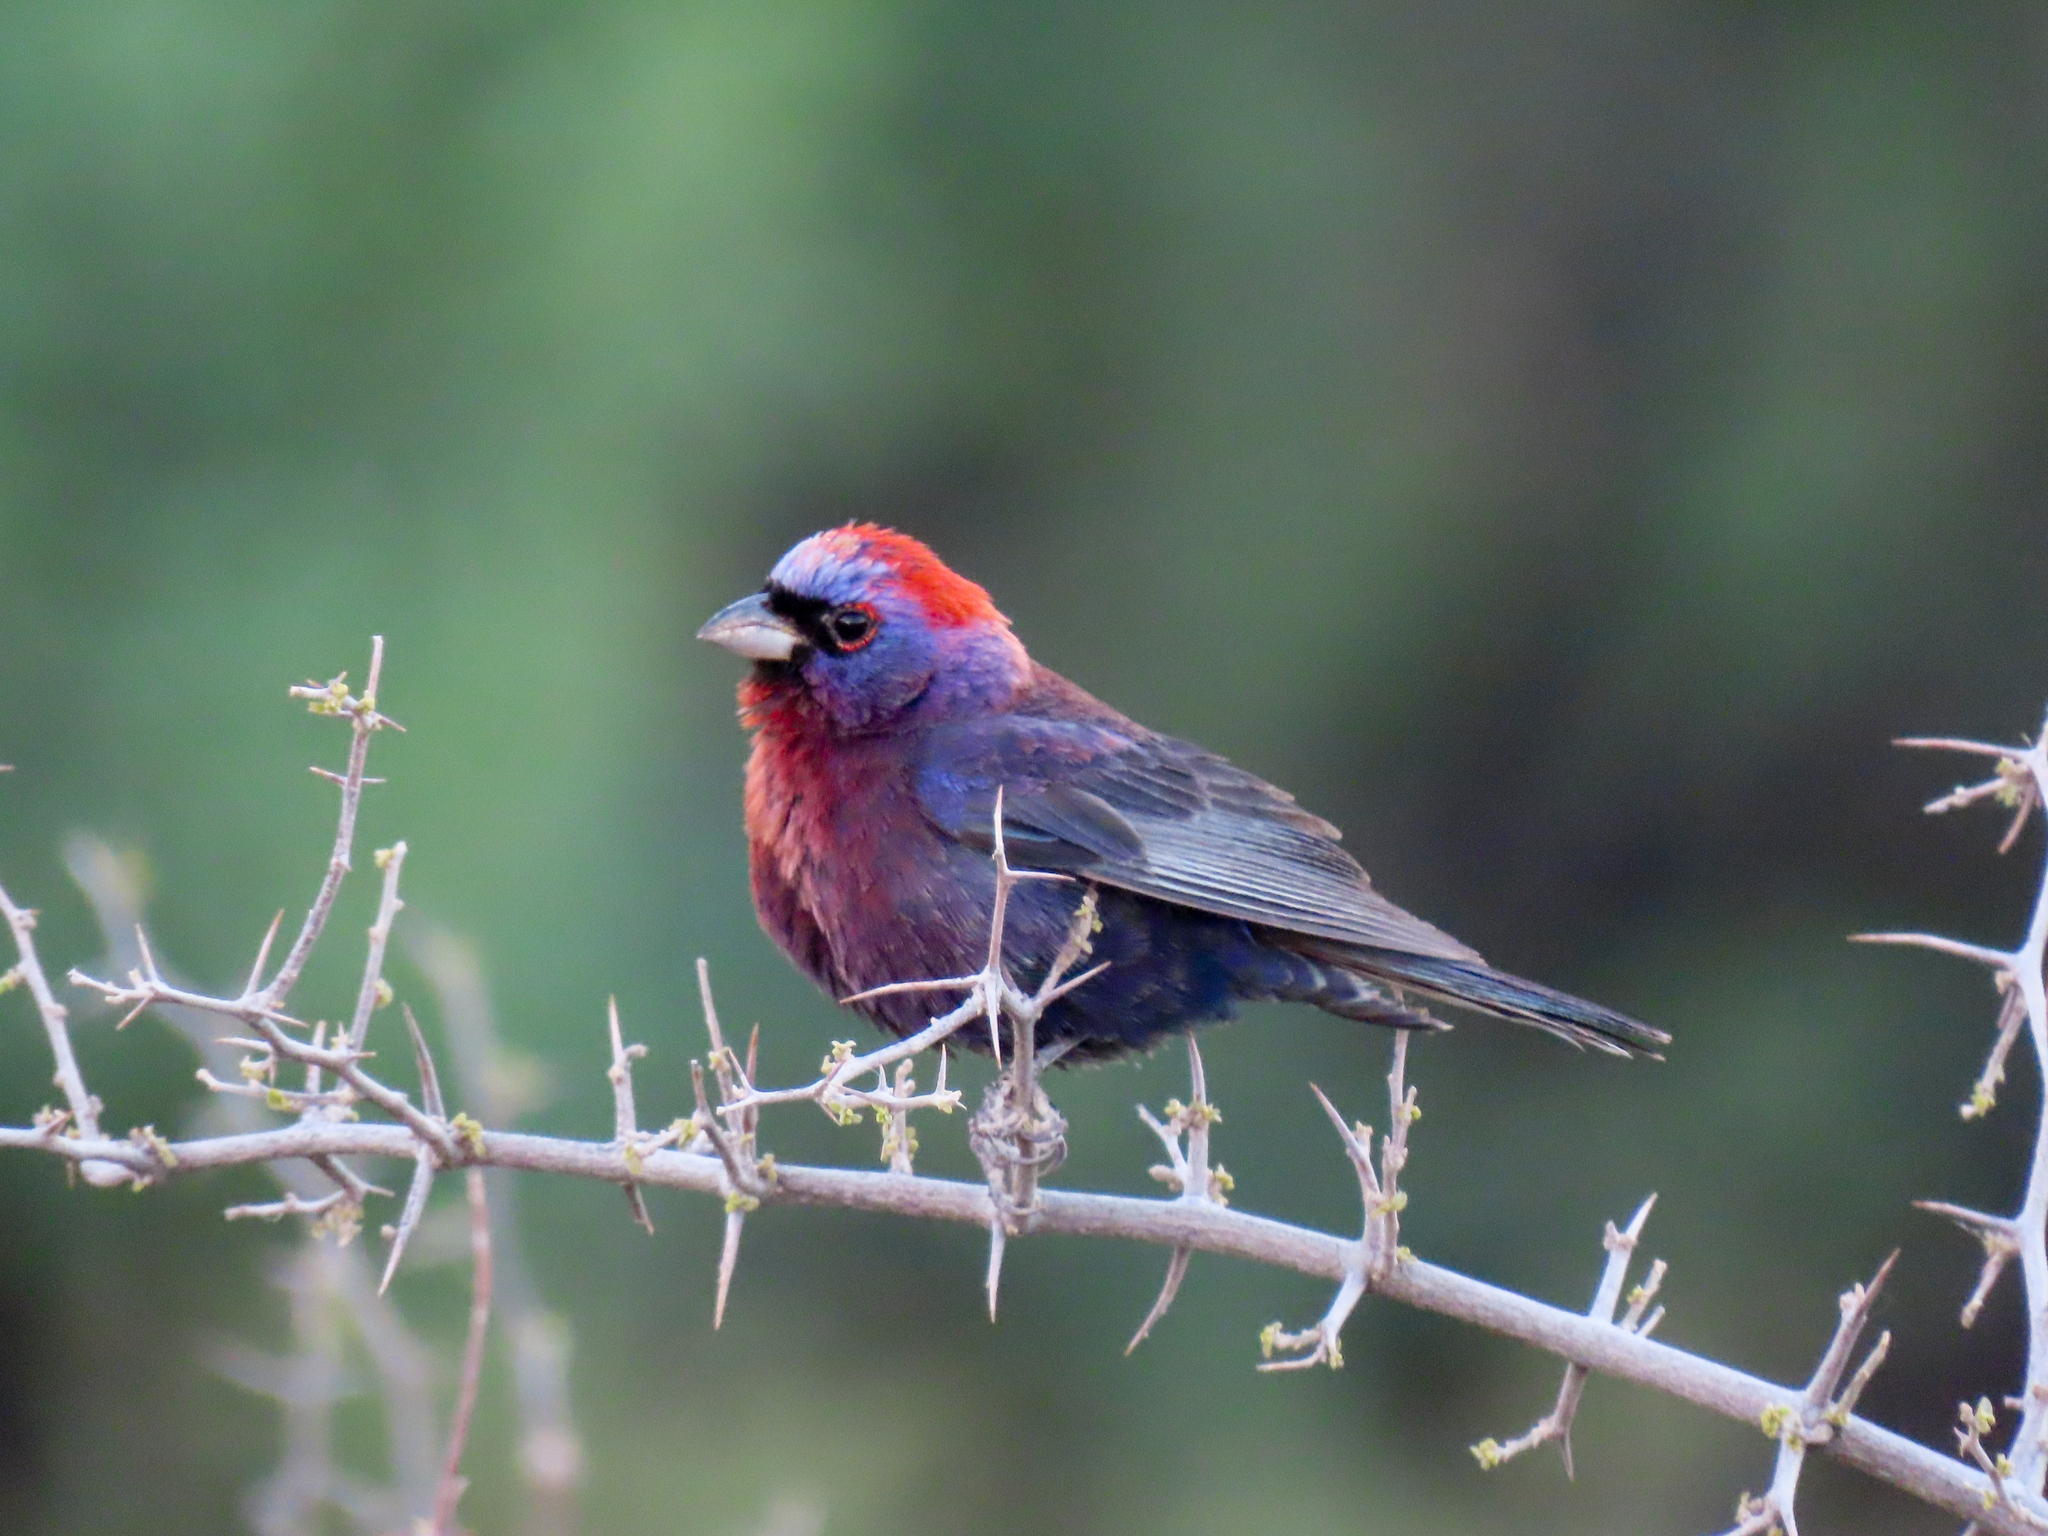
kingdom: Animalia
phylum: Chordata
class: Aves
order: Passeriformes
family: Cardinalidae
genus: Passerina
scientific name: Passerina versicolor
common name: Varied bunting
